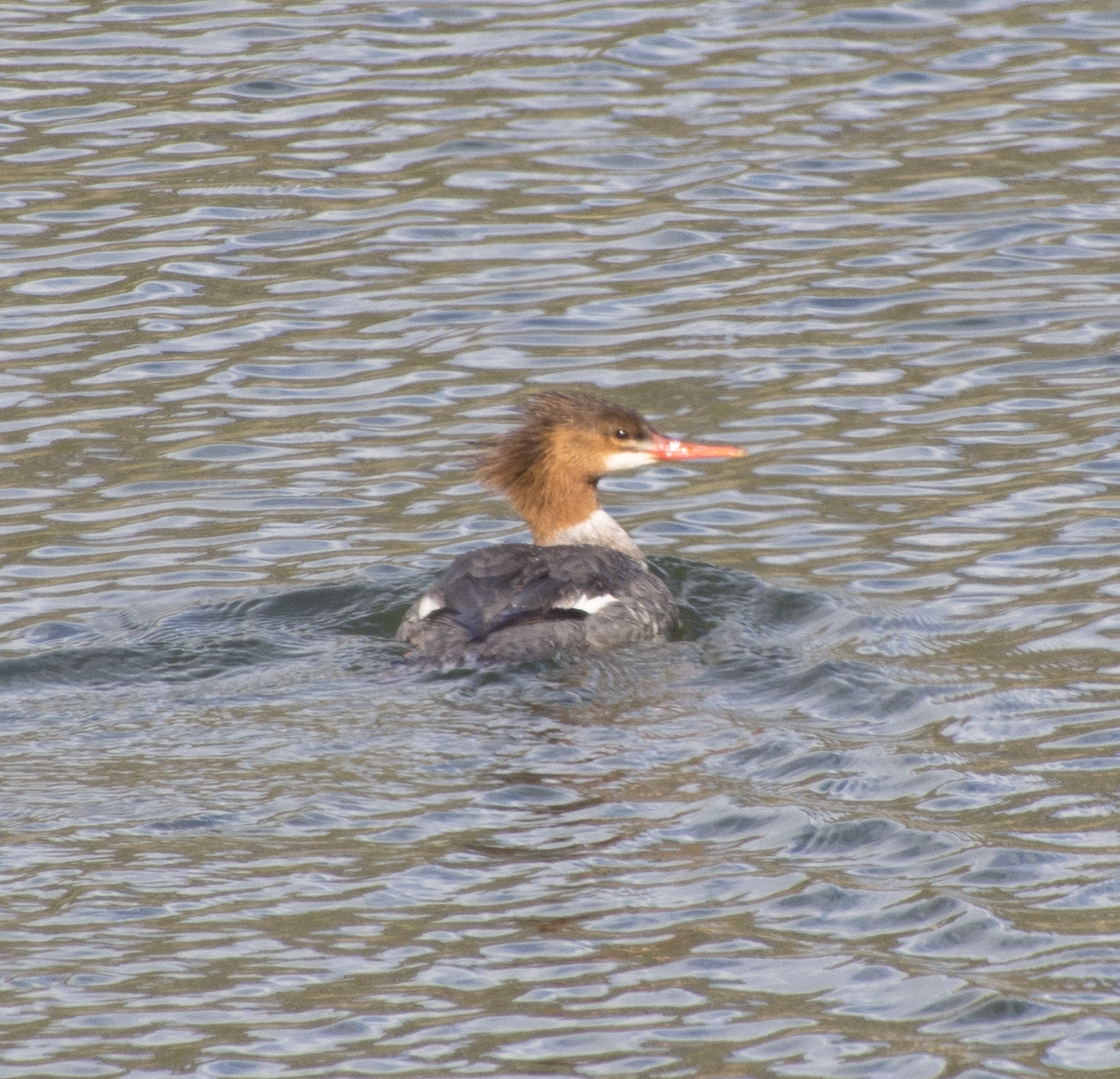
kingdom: Animalia
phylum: Chordata
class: Aves
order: Anseriformes
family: Anatidae
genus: Mergus
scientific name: Mergus merganser
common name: Common merganser
